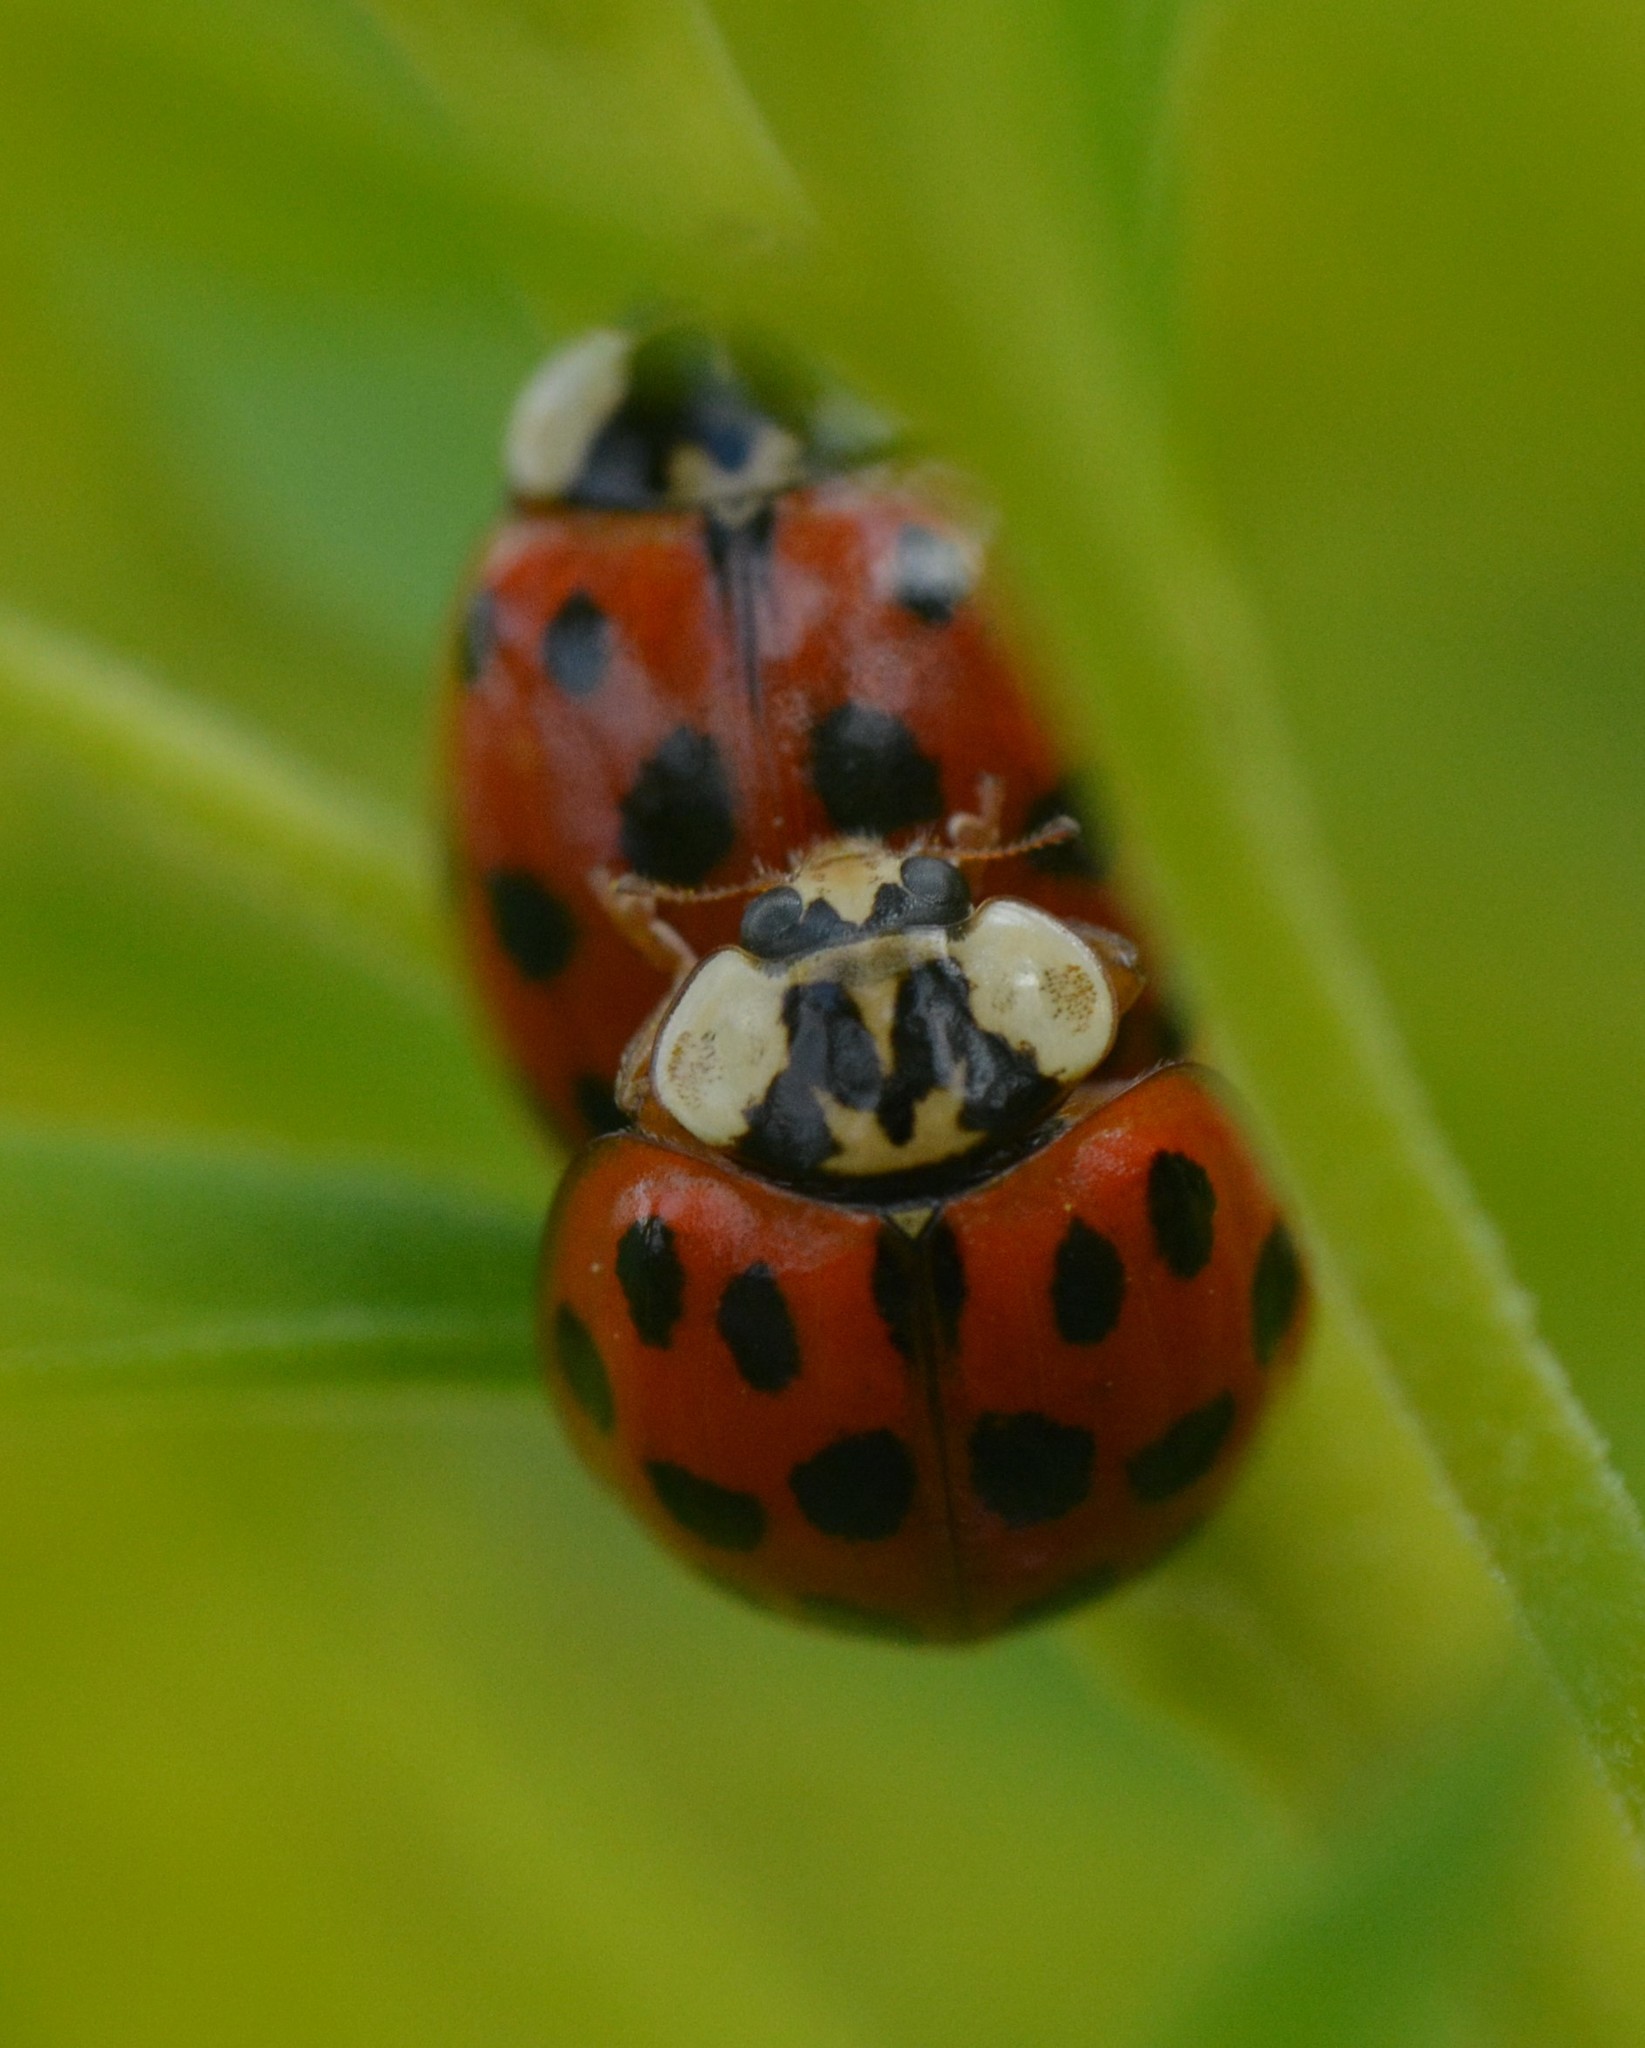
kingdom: Animalia
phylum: Arthropoda
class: Insecta
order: Coleoptera
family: Coccinellidae
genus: Harmonia
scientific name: Harmonia axyridis
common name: Harlequin ladybird
